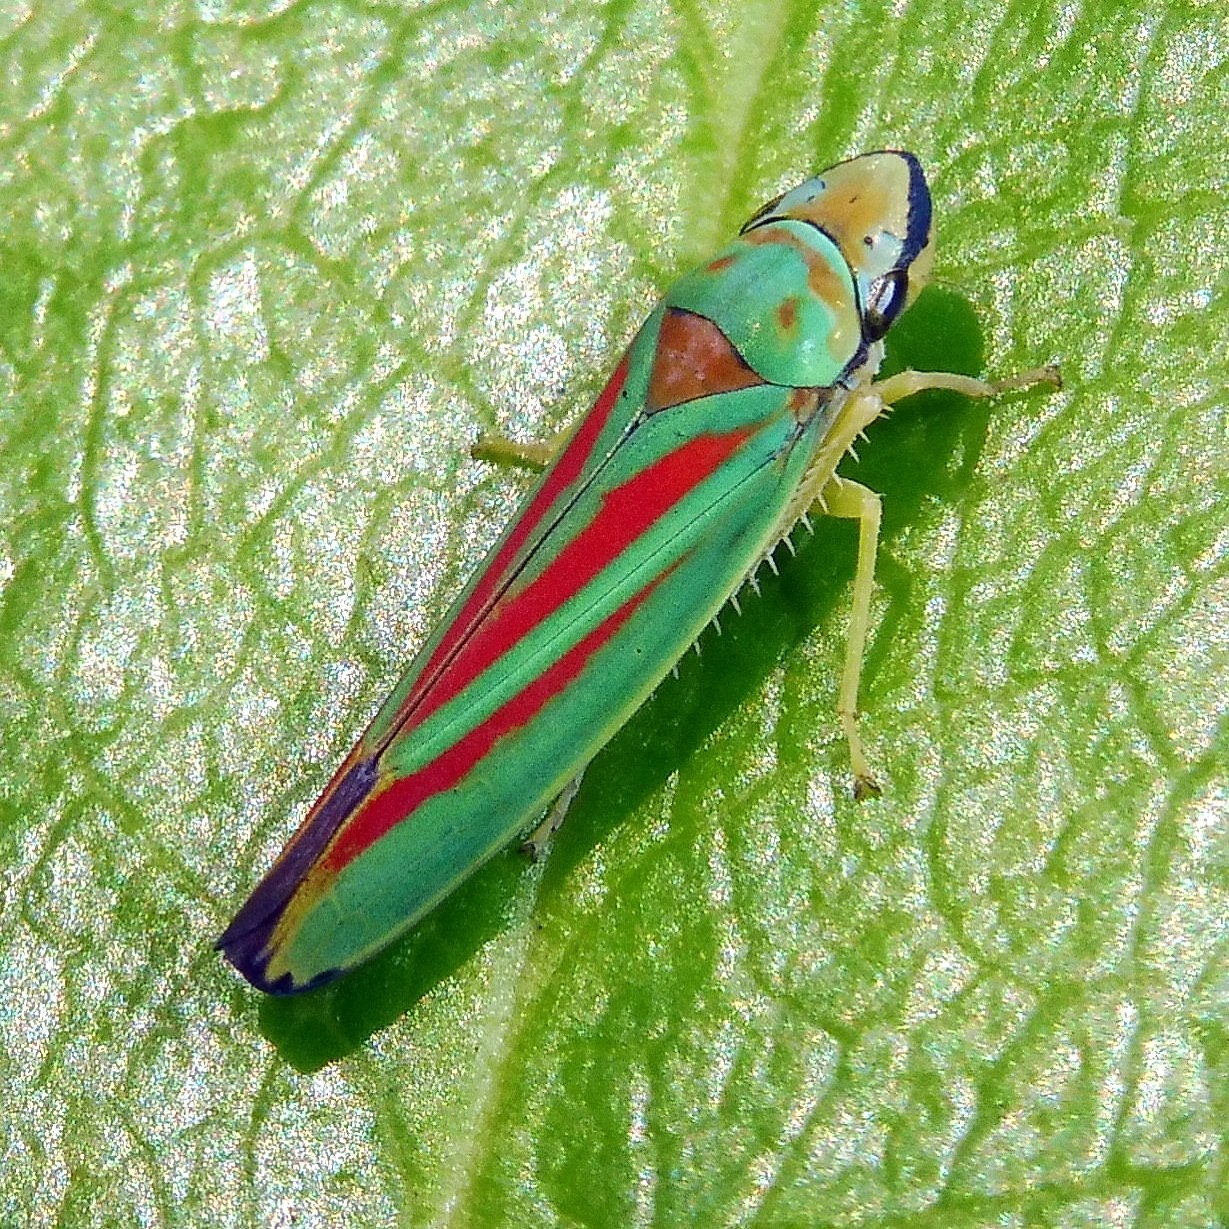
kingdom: Animalia
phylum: Arthropoda
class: Insecta
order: Hemiptera
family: Cicadellidae
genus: Graphocephala
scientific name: Graphocephala fennahi
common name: Rhododendron leafhopper
